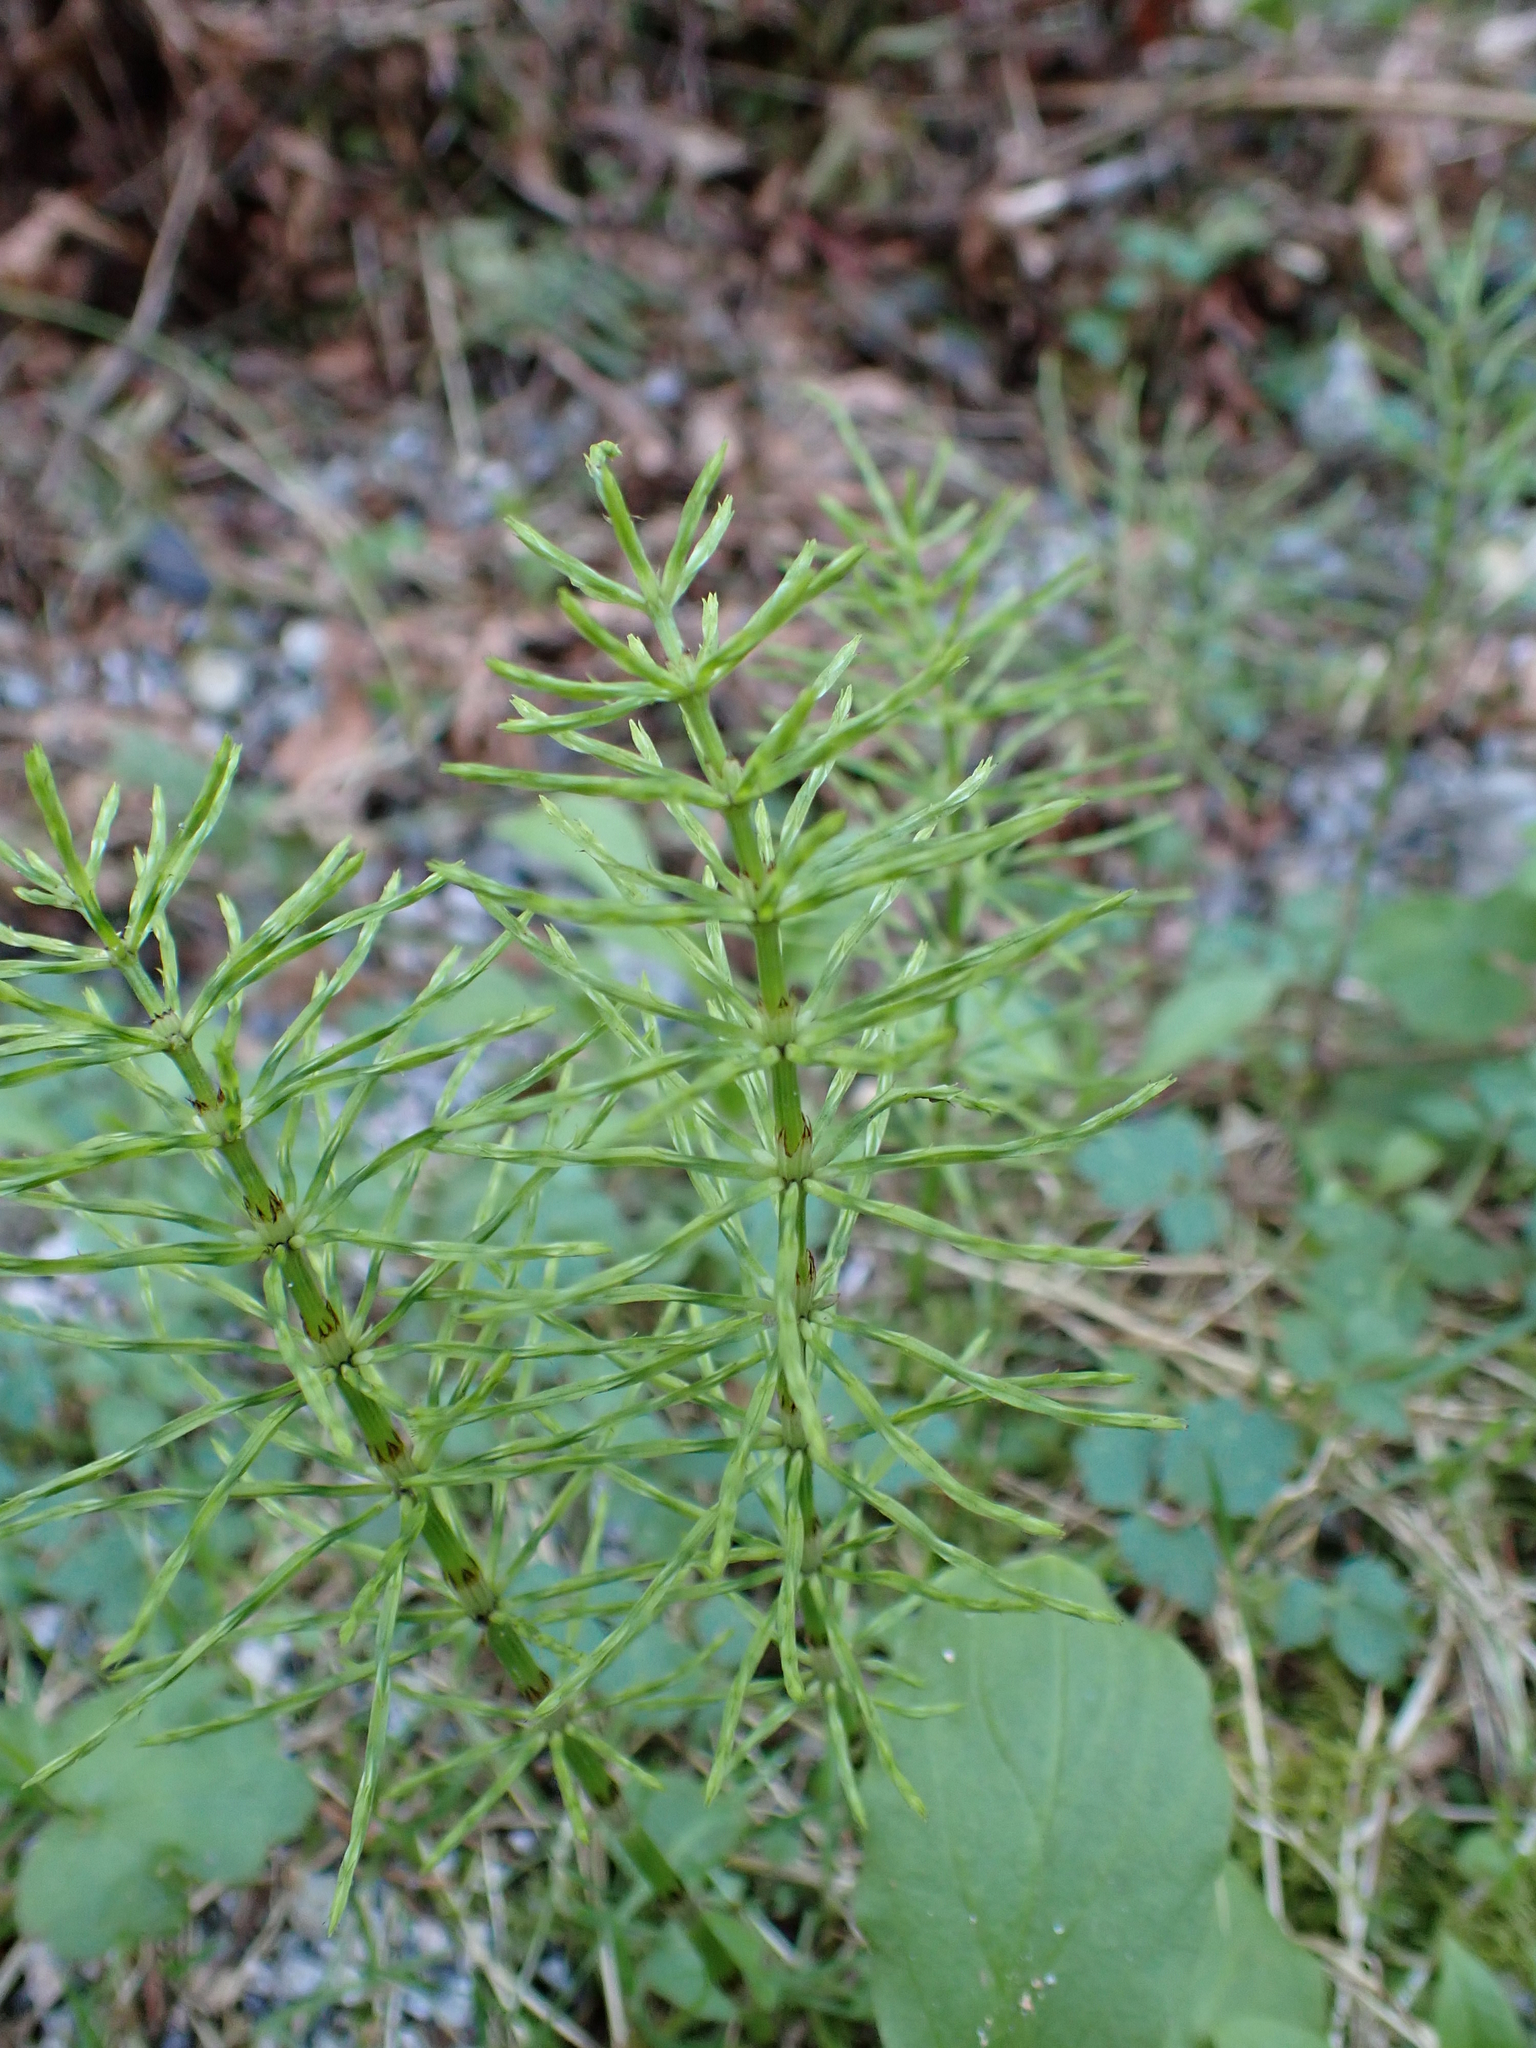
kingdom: Plantae
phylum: Tracheophyta
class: Polypodiopsida
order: Equisetales
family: Equisetaceae
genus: Equisetum
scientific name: Equisetum arvense
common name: Field horsetail
